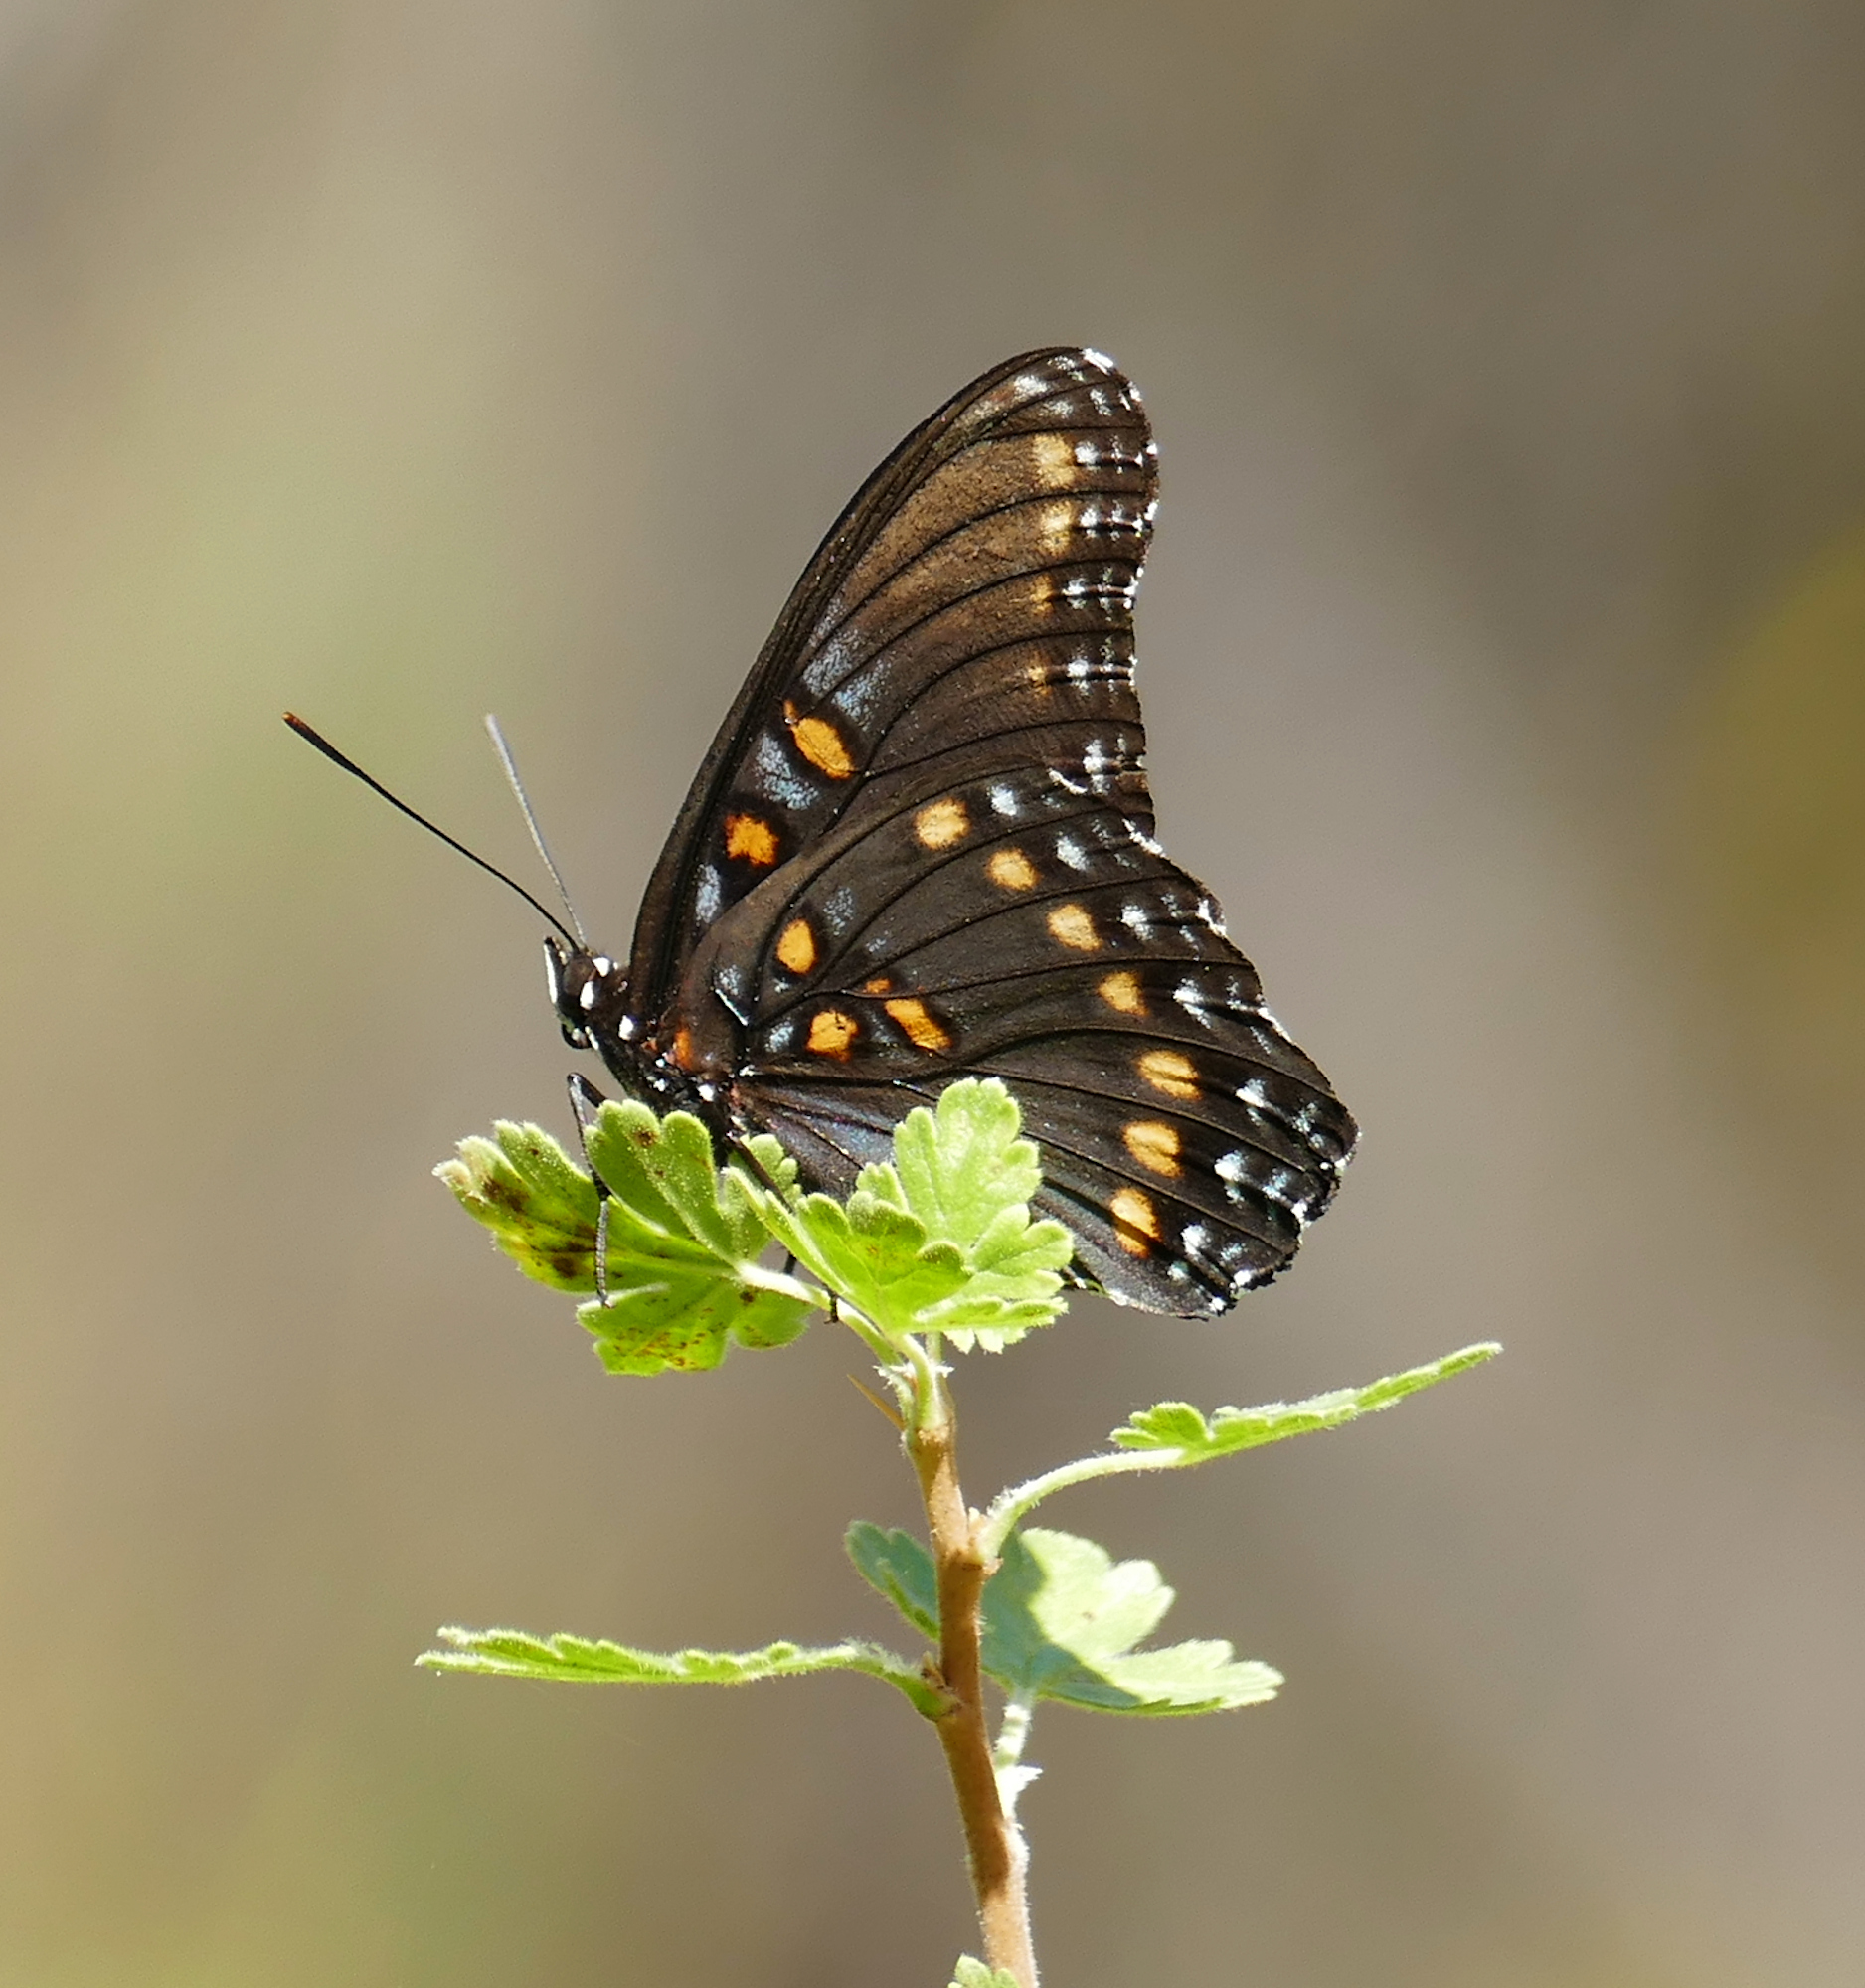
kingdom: Animalia
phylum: Arthropoda
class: Insecta
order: Lepidoptera
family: Nymphalidae
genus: Limenitis
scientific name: Limenitis arthemis
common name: Red-spotted admiral
